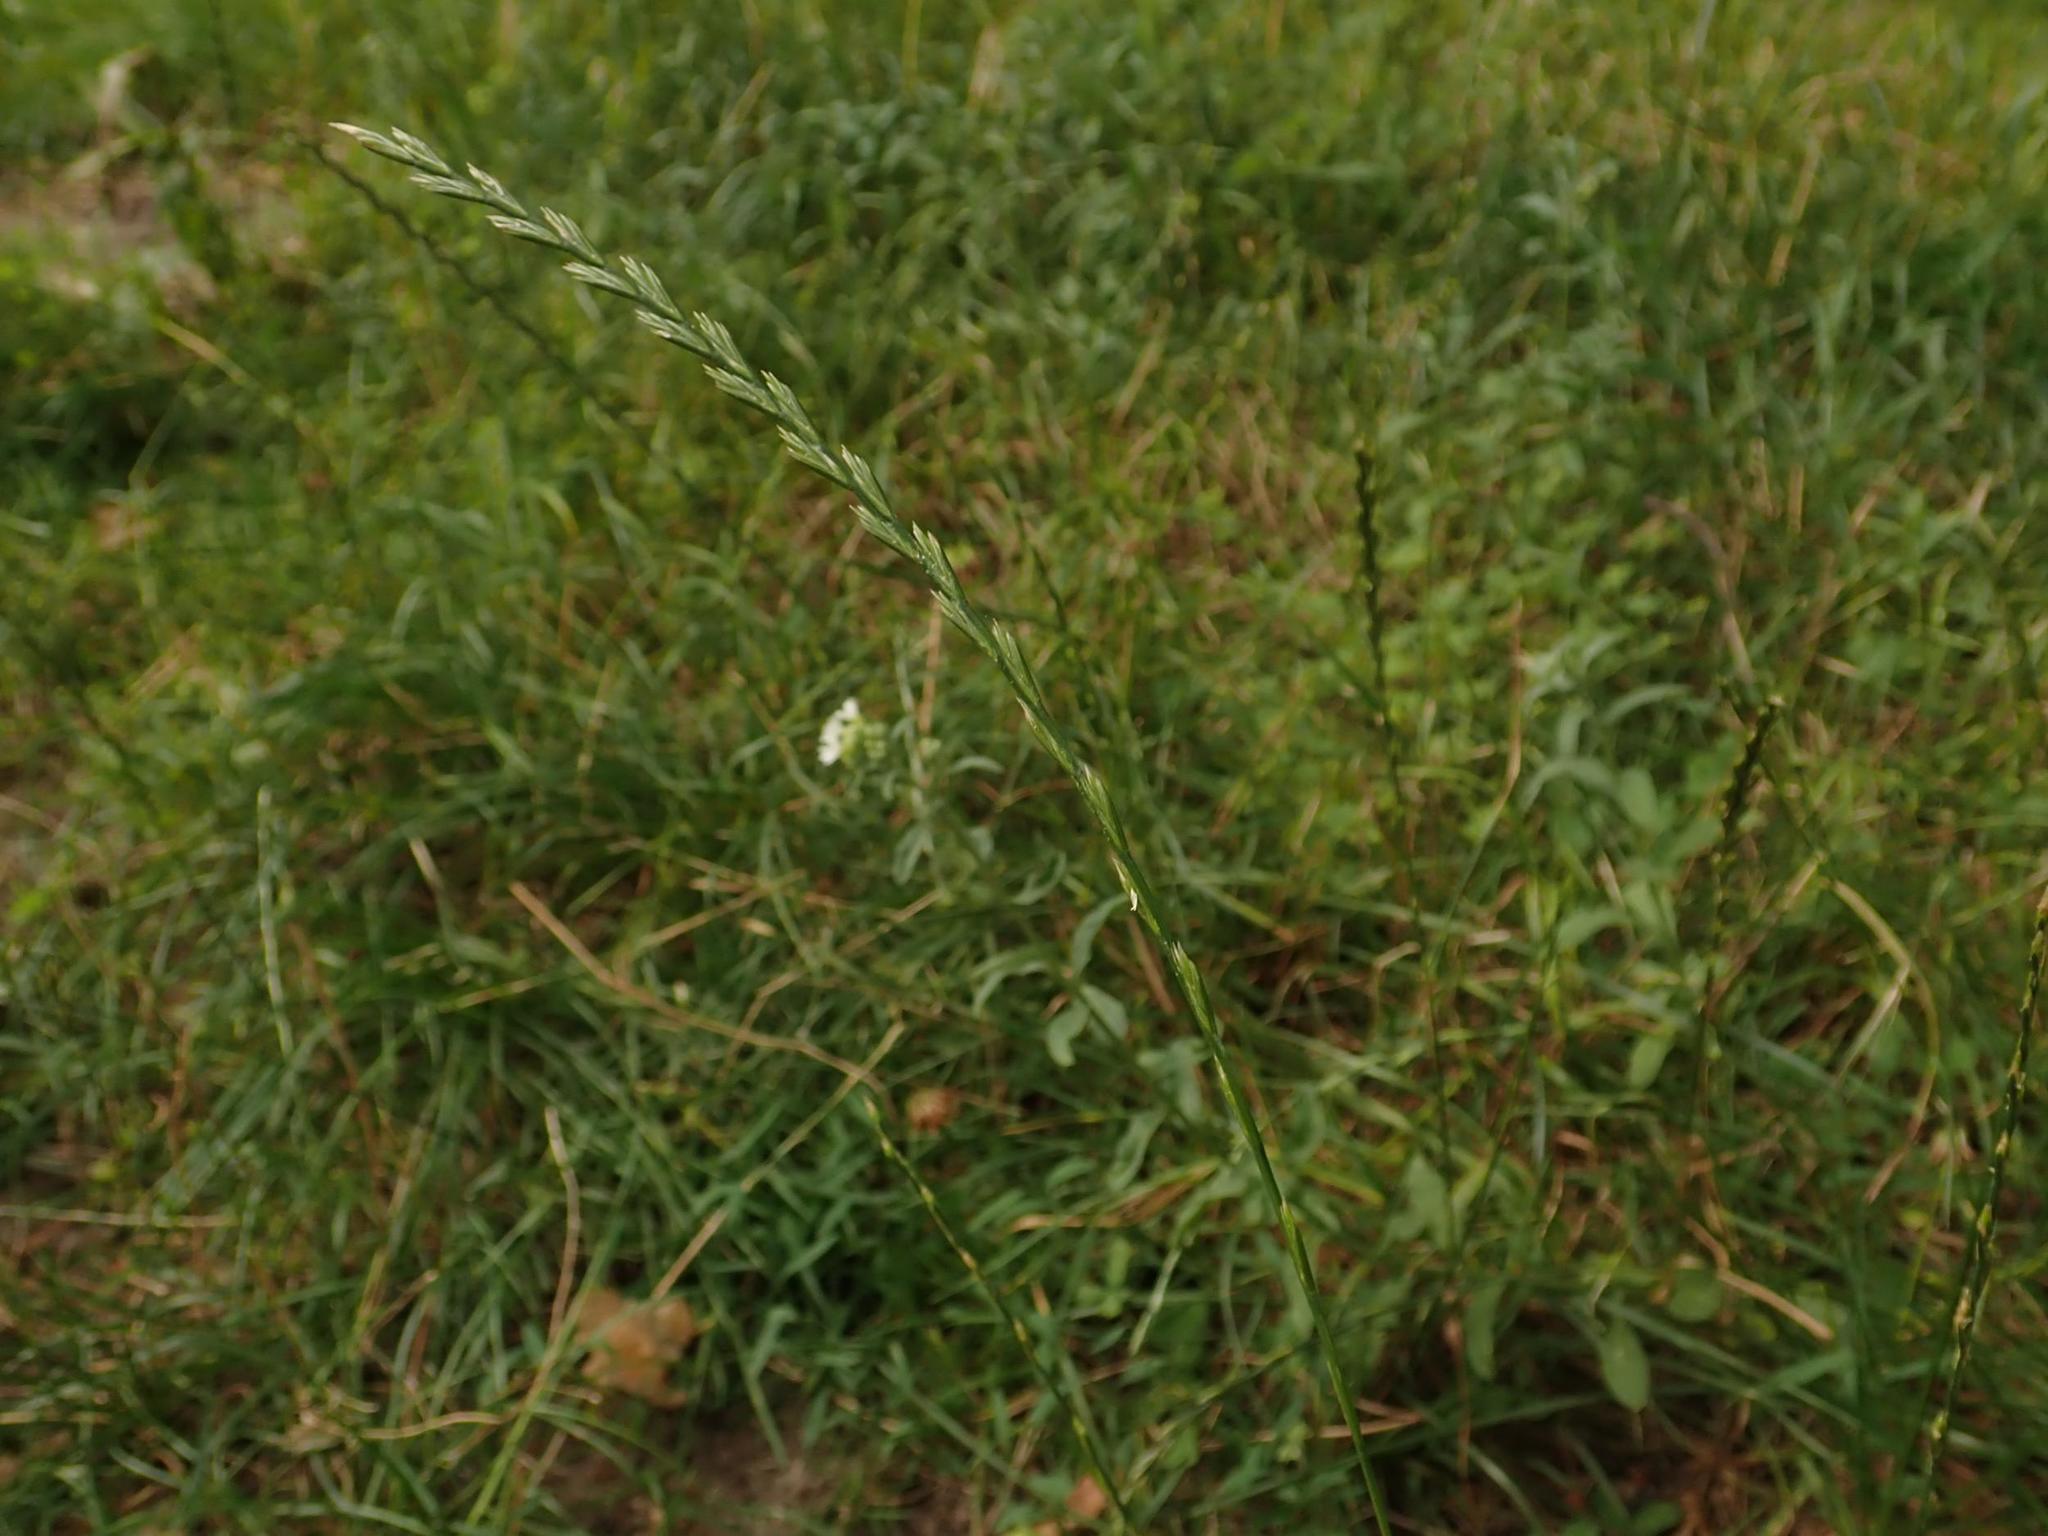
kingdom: Plantae
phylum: Tracheophyta
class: Liliopsida
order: Poales
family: Poaceae
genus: Lolium
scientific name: Lolium perenne
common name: Perennial ryegrass
